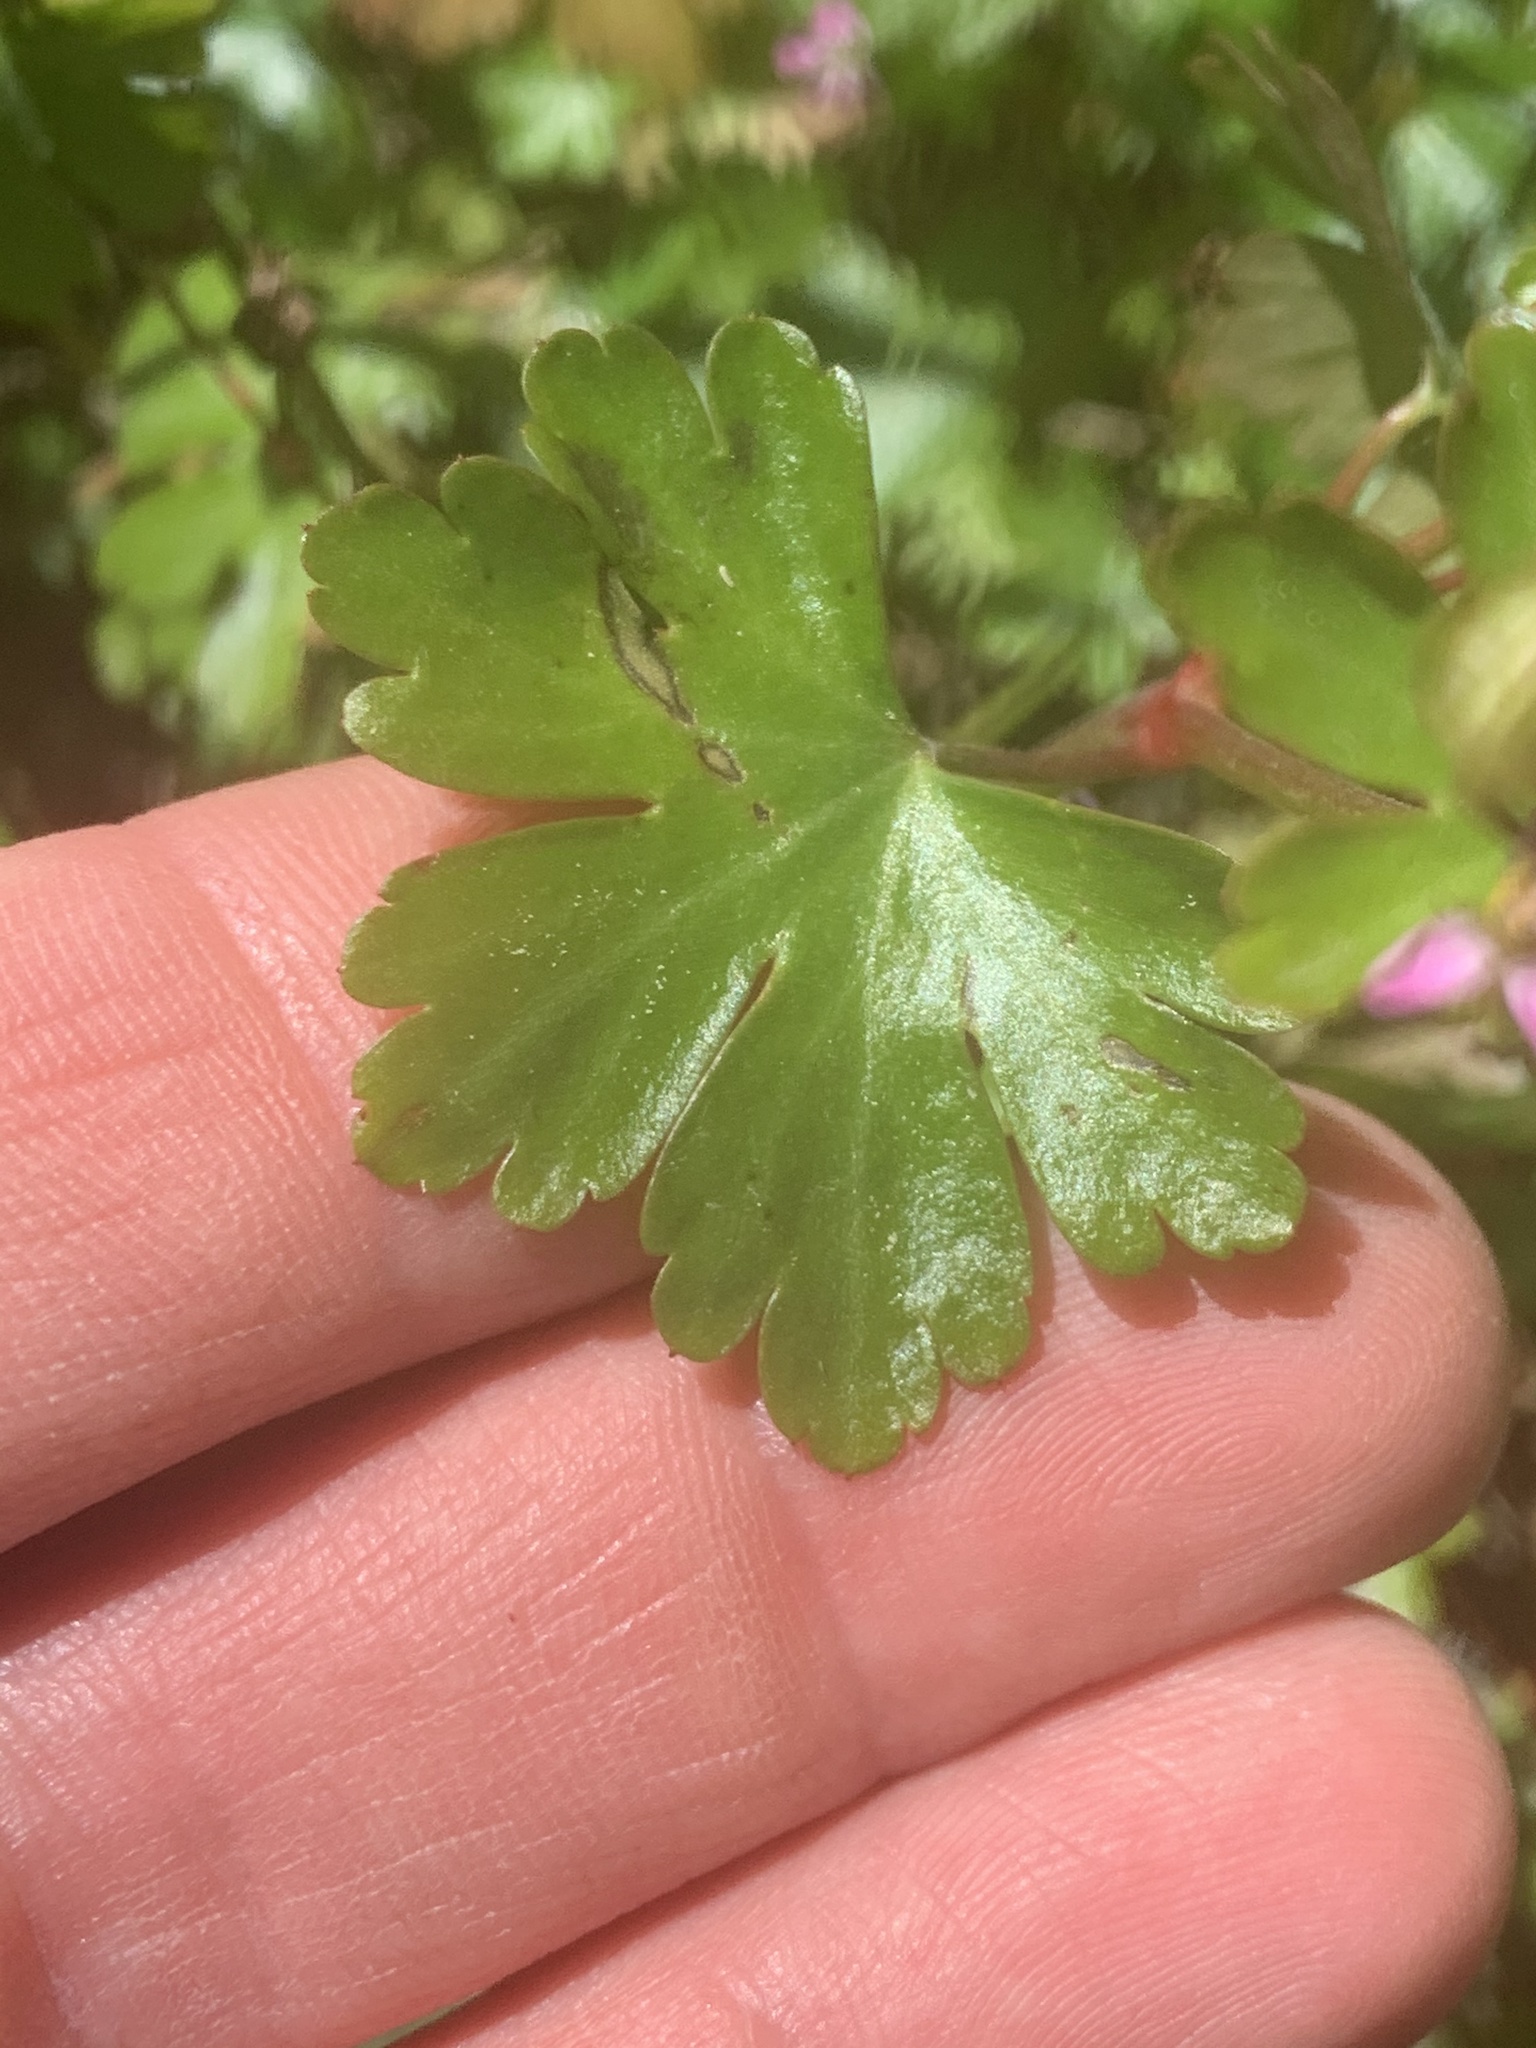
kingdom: Plantae
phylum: Tracheophyta
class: Magnoliopsida
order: Geraniales
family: Geraniaceae
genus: Geranium
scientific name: Geranium lucidum
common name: Shining crane's-bill
